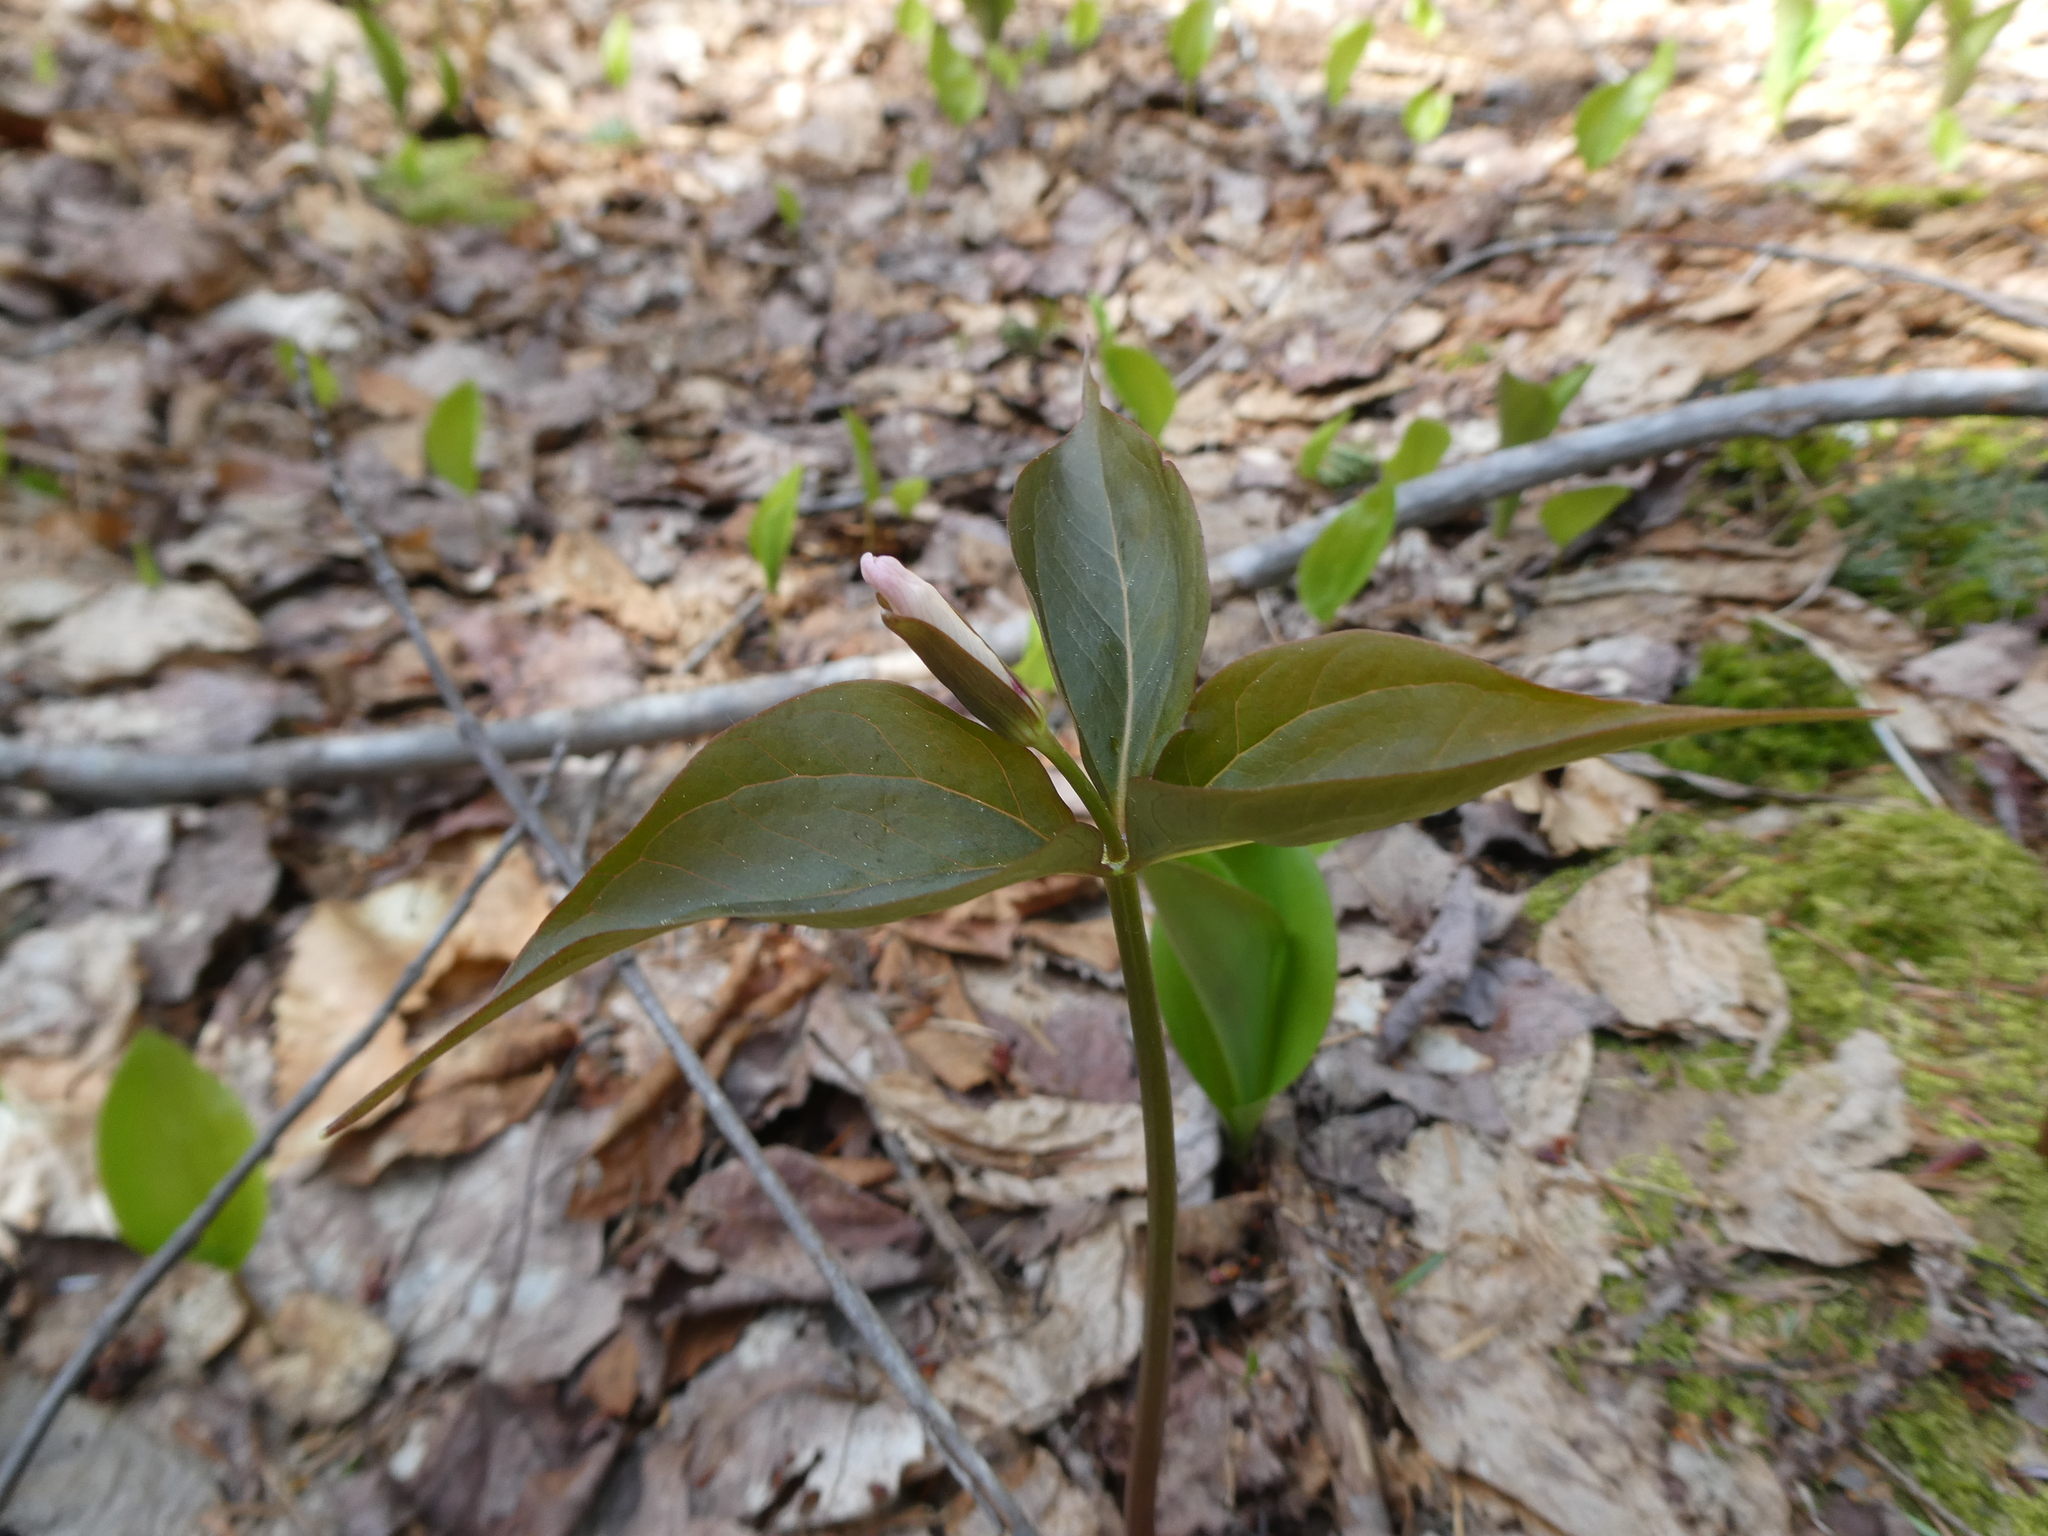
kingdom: Plantae
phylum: Tracheophyta
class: Liliopsida
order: Liliales
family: Melanthiaceae
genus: Trillium
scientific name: Trillium undulatum
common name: Paint trillium
